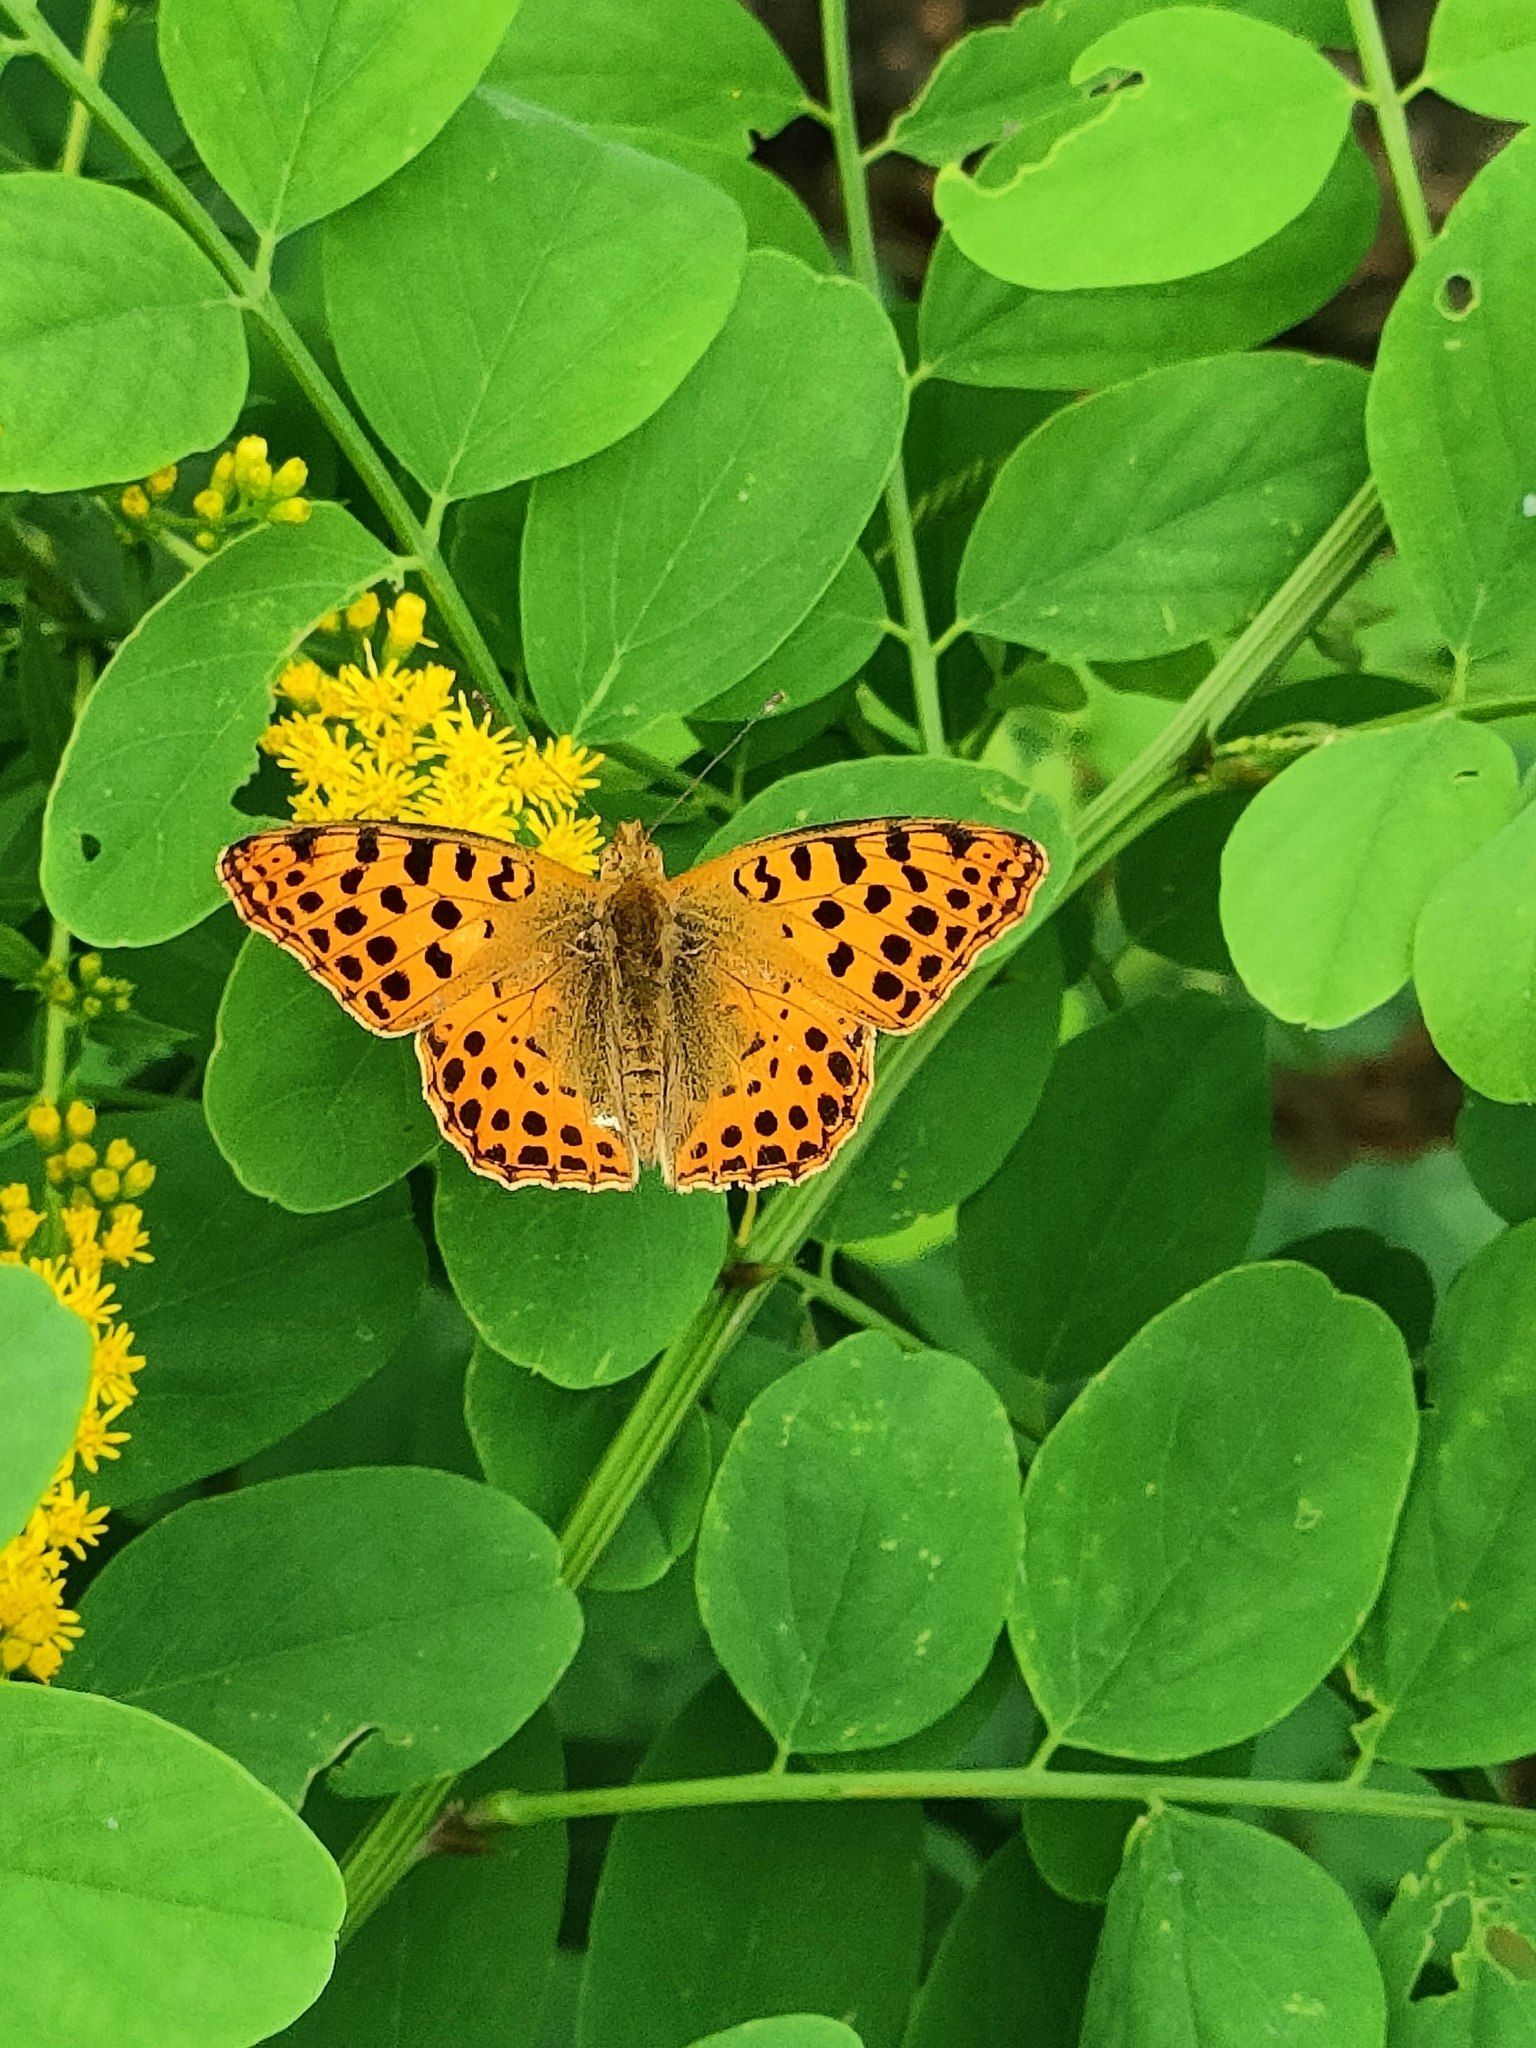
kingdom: Animalia
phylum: Arthropoda
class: Insecta
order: Lepidoptera
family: Nymphalidae
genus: Issoria
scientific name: Issoria lathonia
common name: Queen of spain fritillary
